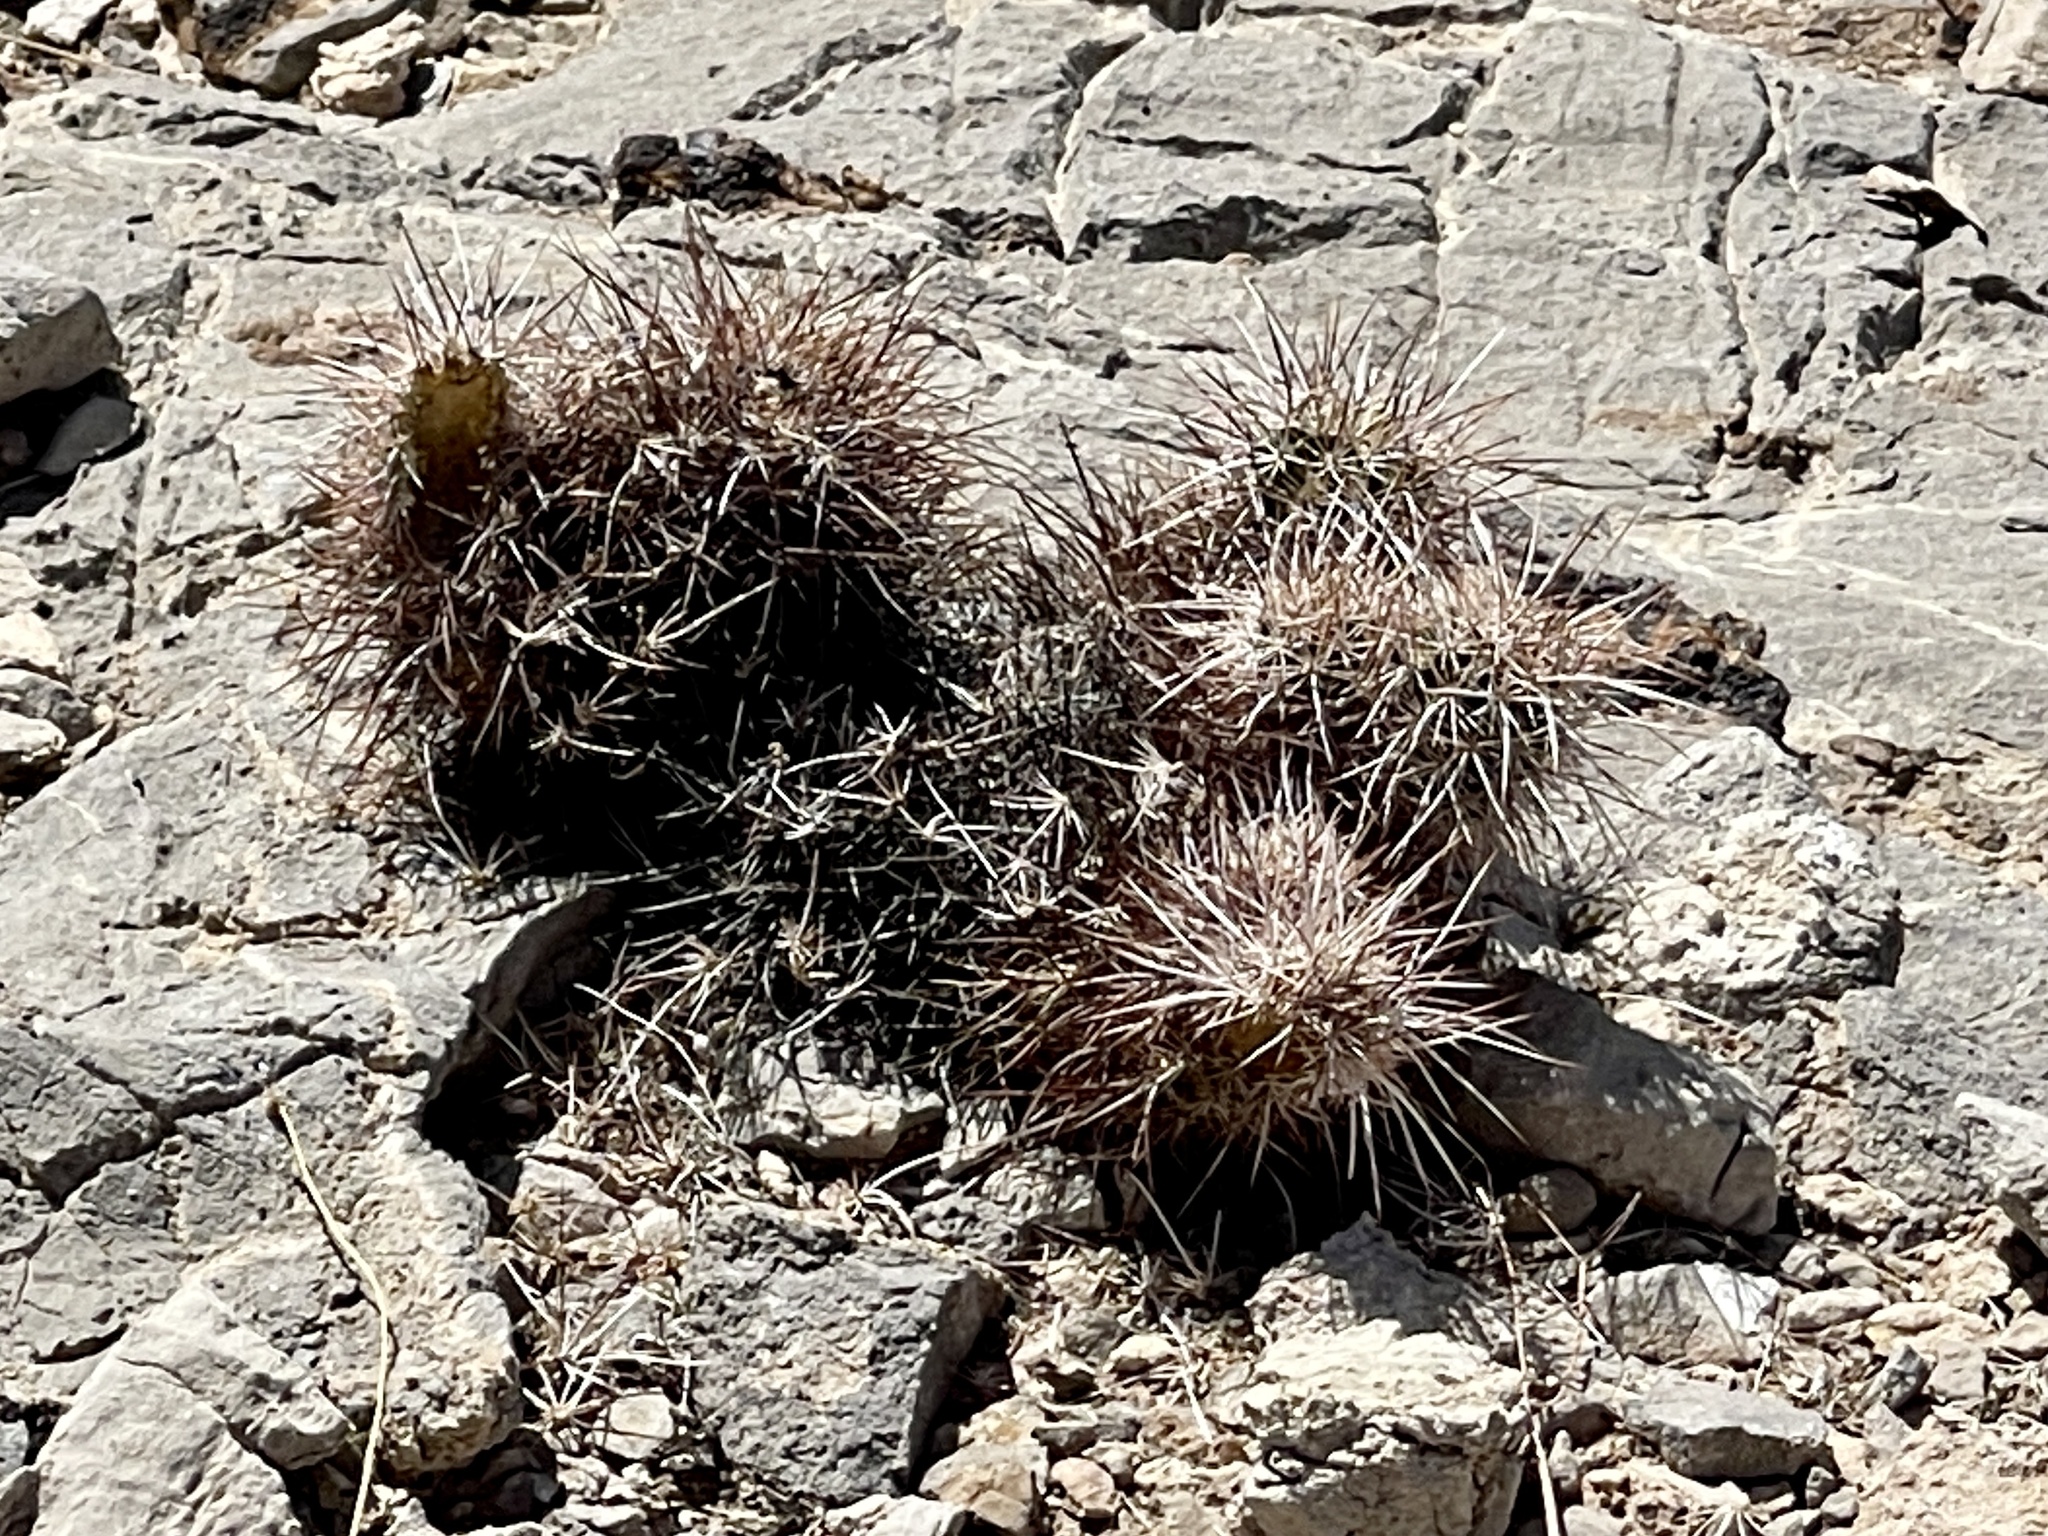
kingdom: Plantae
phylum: Tracheophyta
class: Magnoliopsida
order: Caryophyllales
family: Cactaceae
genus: Echinocereus
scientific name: Echinocereus engelmannii
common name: Engelmann's hedgehog cactus
